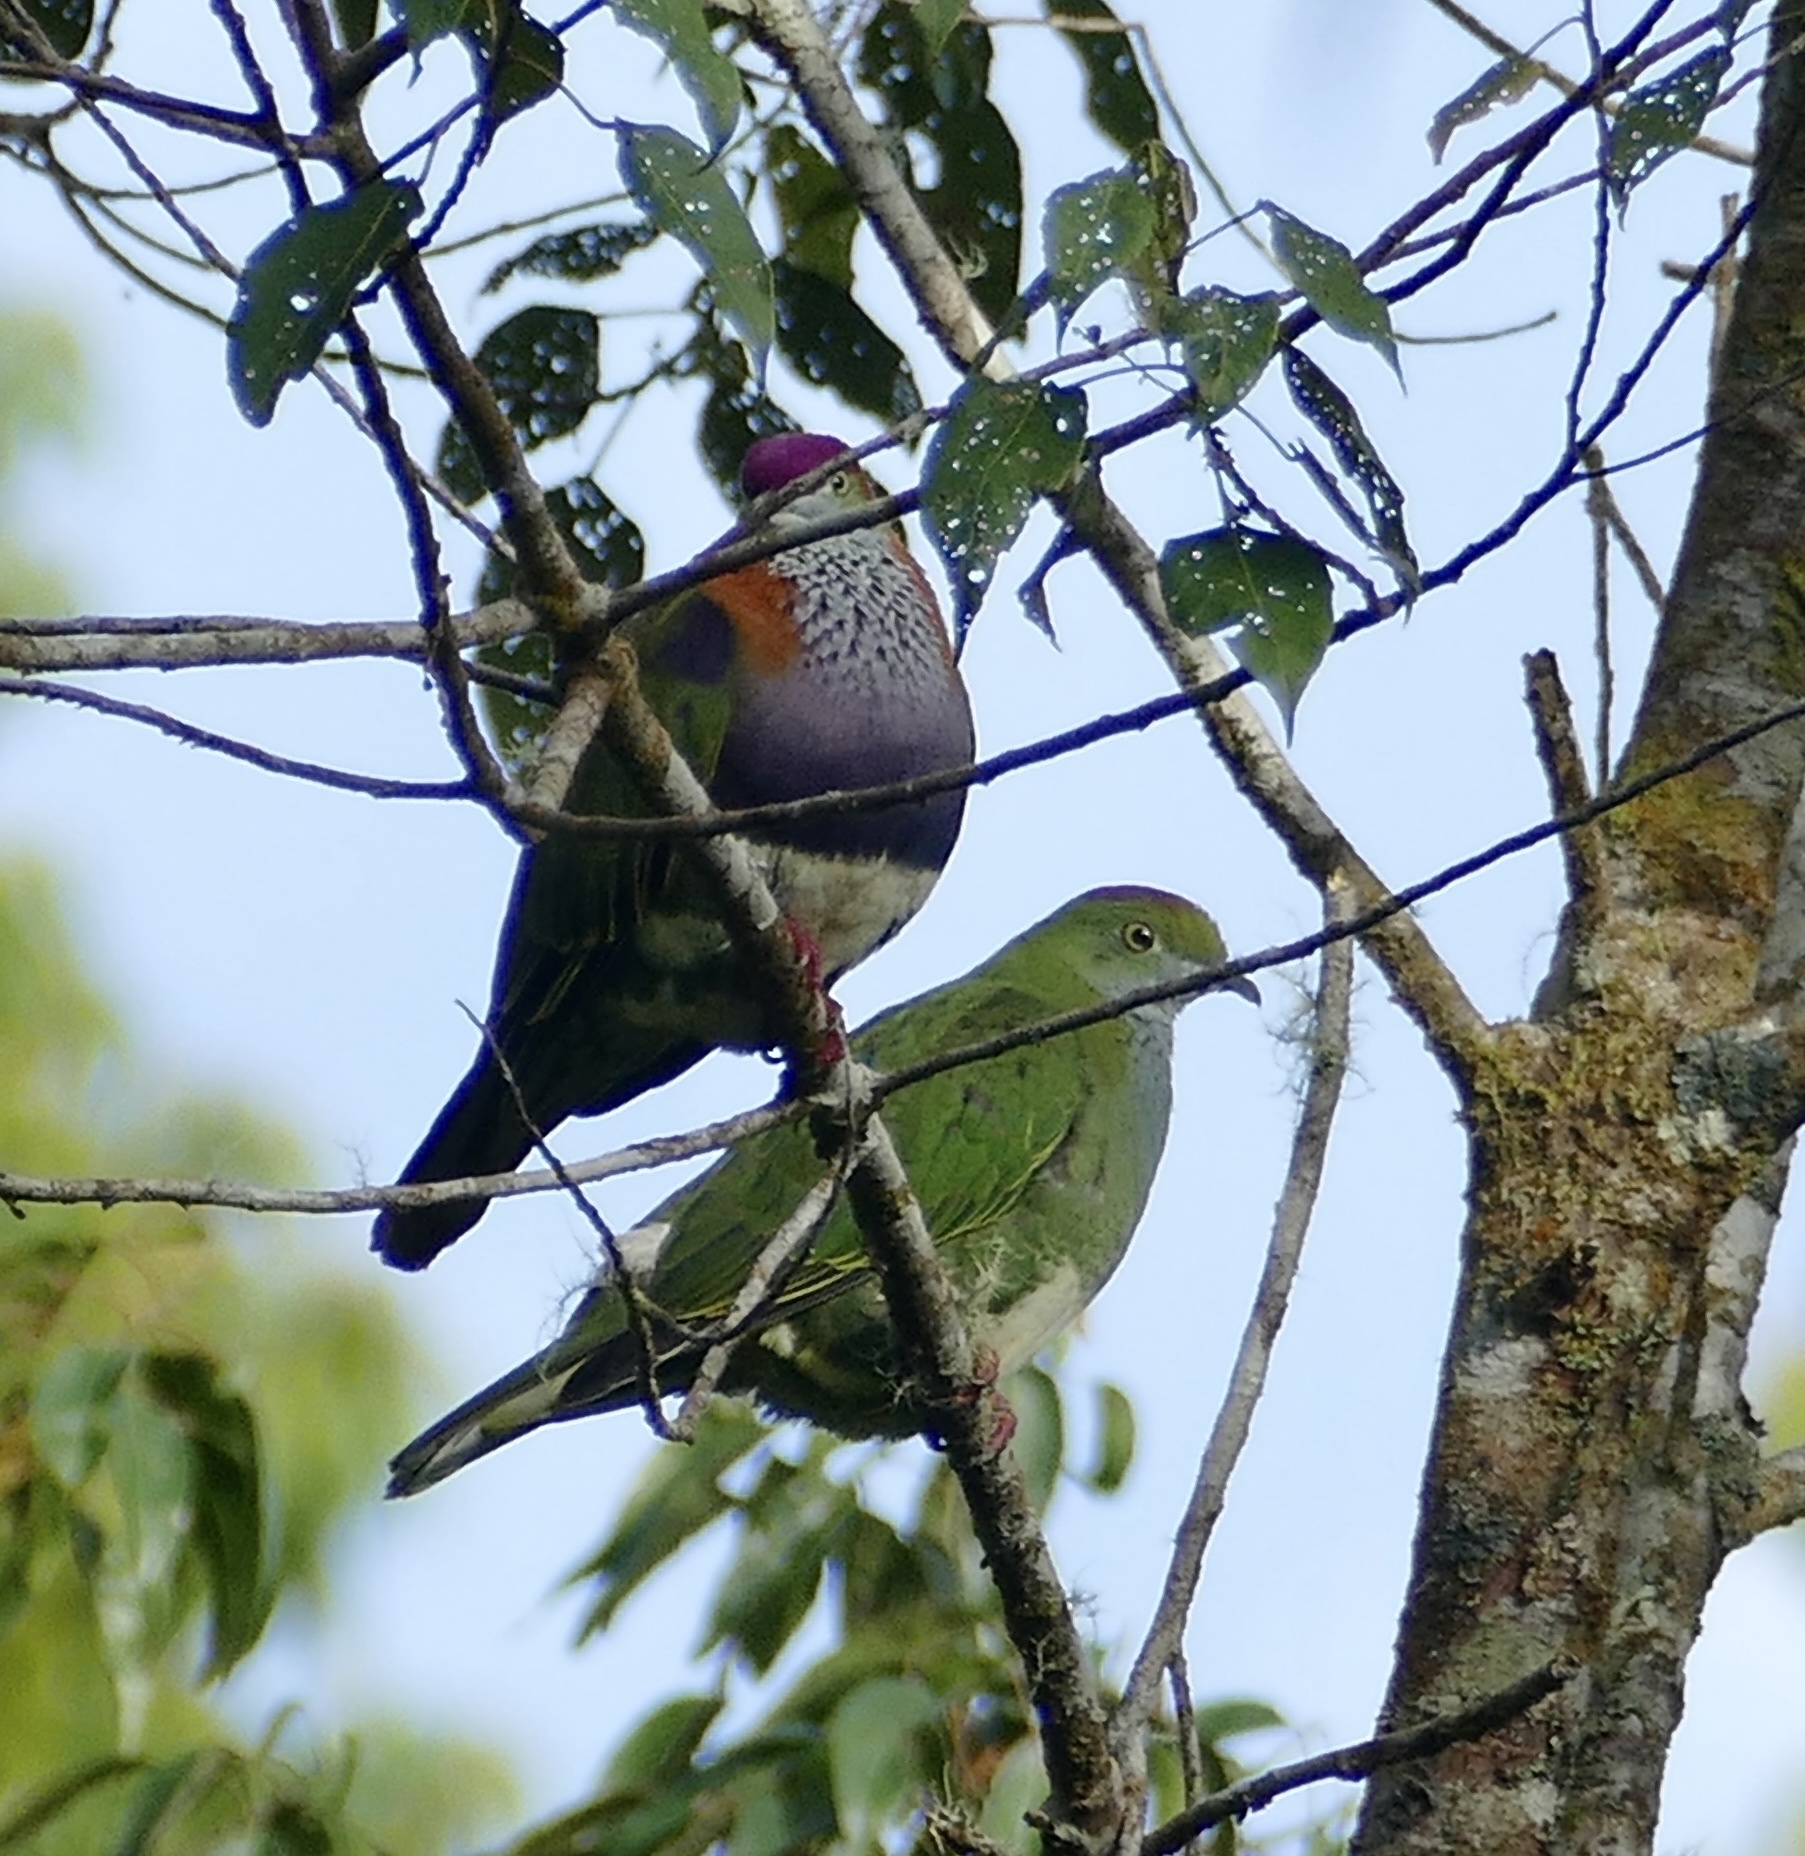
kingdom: Animalia
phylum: Chordata
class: Aves
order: Columbiformes
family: Columbidae
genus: Ptilinopus
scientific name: Ptilinopus superbus
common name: Superb fruit dove
